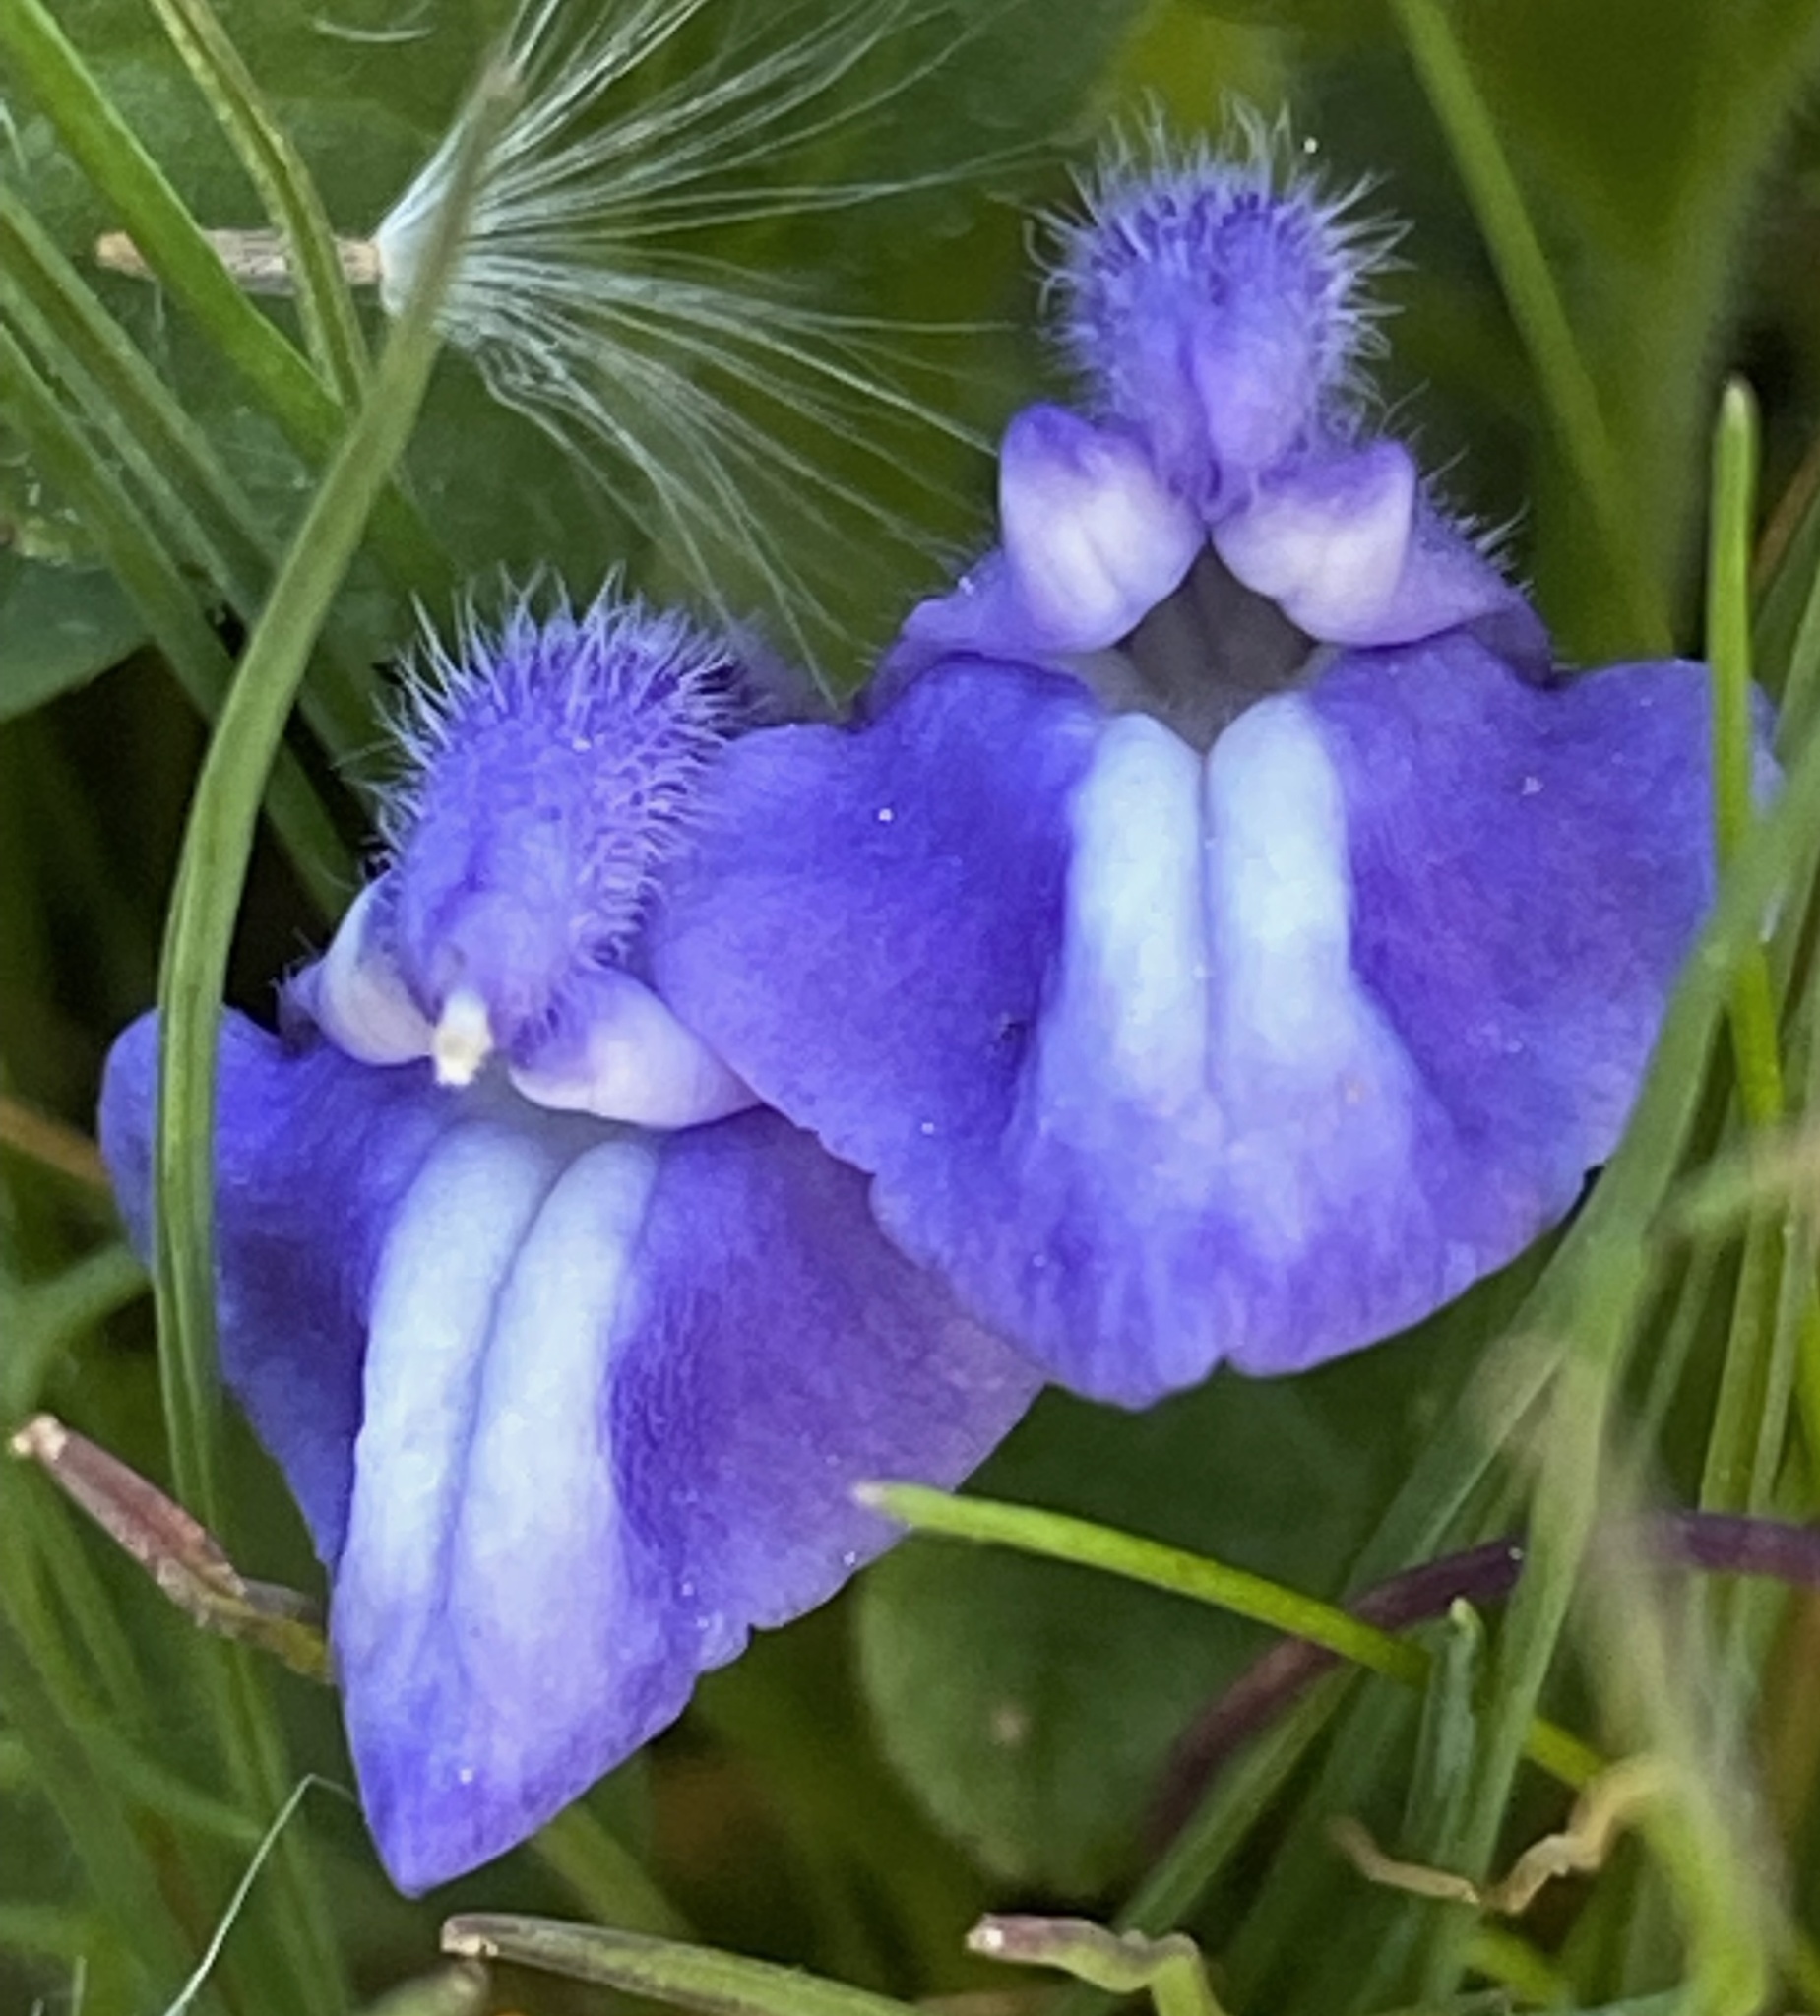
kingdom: Plantae
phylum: Tracheophyta
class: Magnoliopsida
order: Lamiales
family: Lamiaceae
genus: Scutellaria
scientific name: Scutellaria tuberosa
